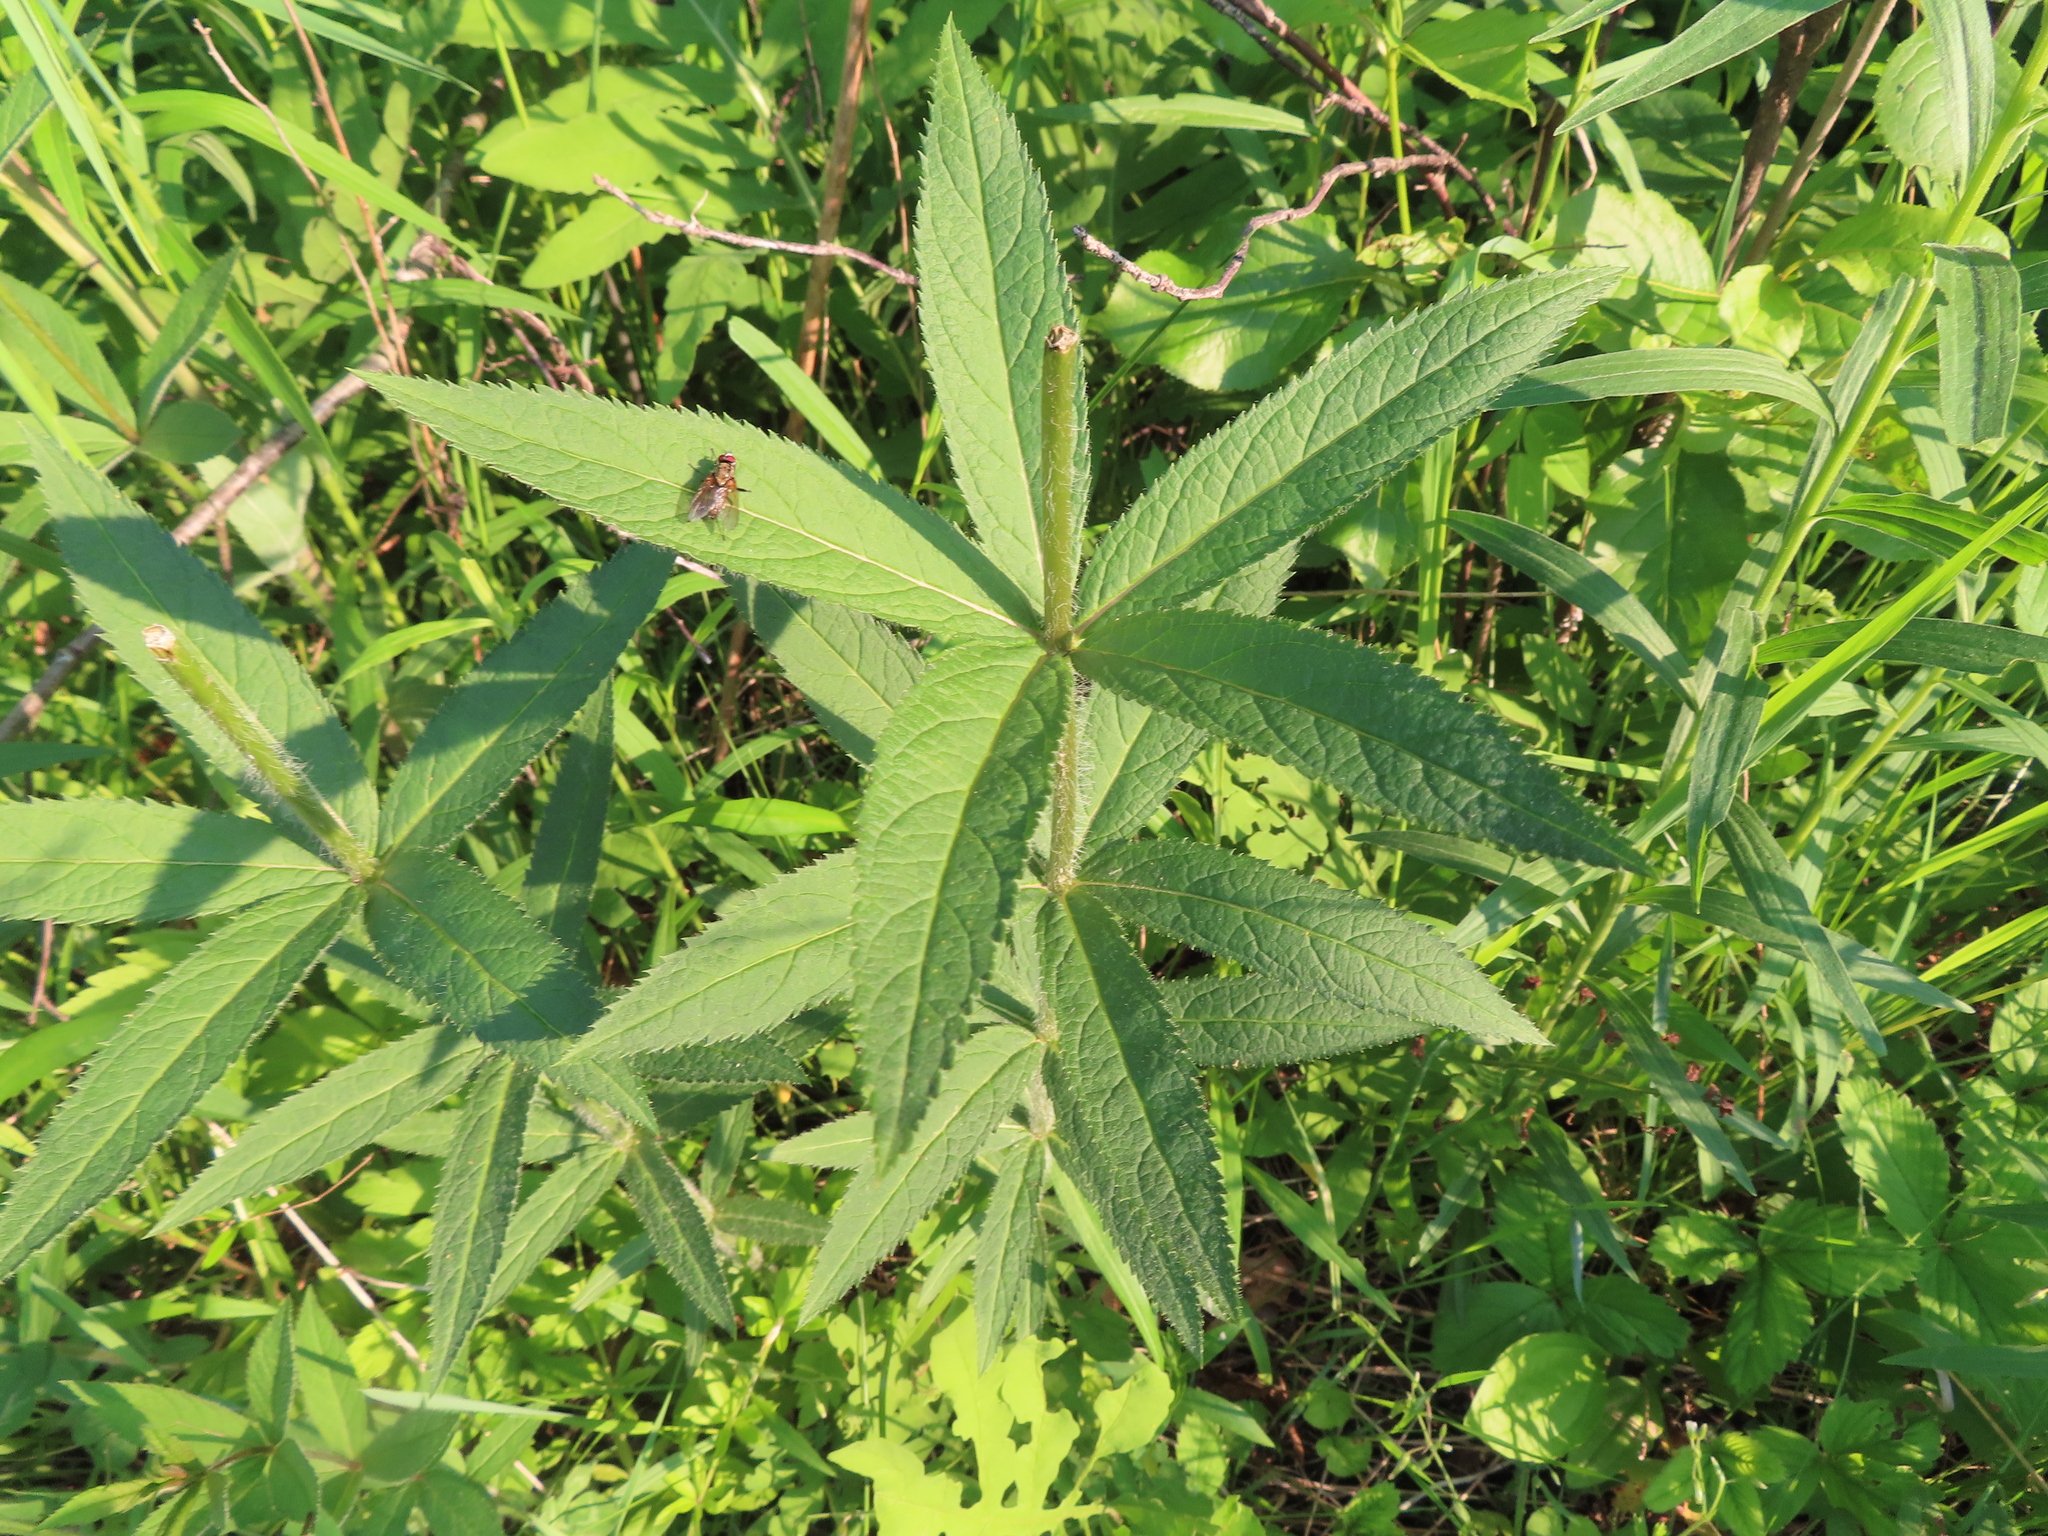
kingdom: Plantae
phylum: Tracheophyta
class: Magnoliopsida
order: Lamiales
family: Plantaginaceae
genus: Veronicastrum
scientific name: Veronicastrum virginicum
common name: Blackroot
